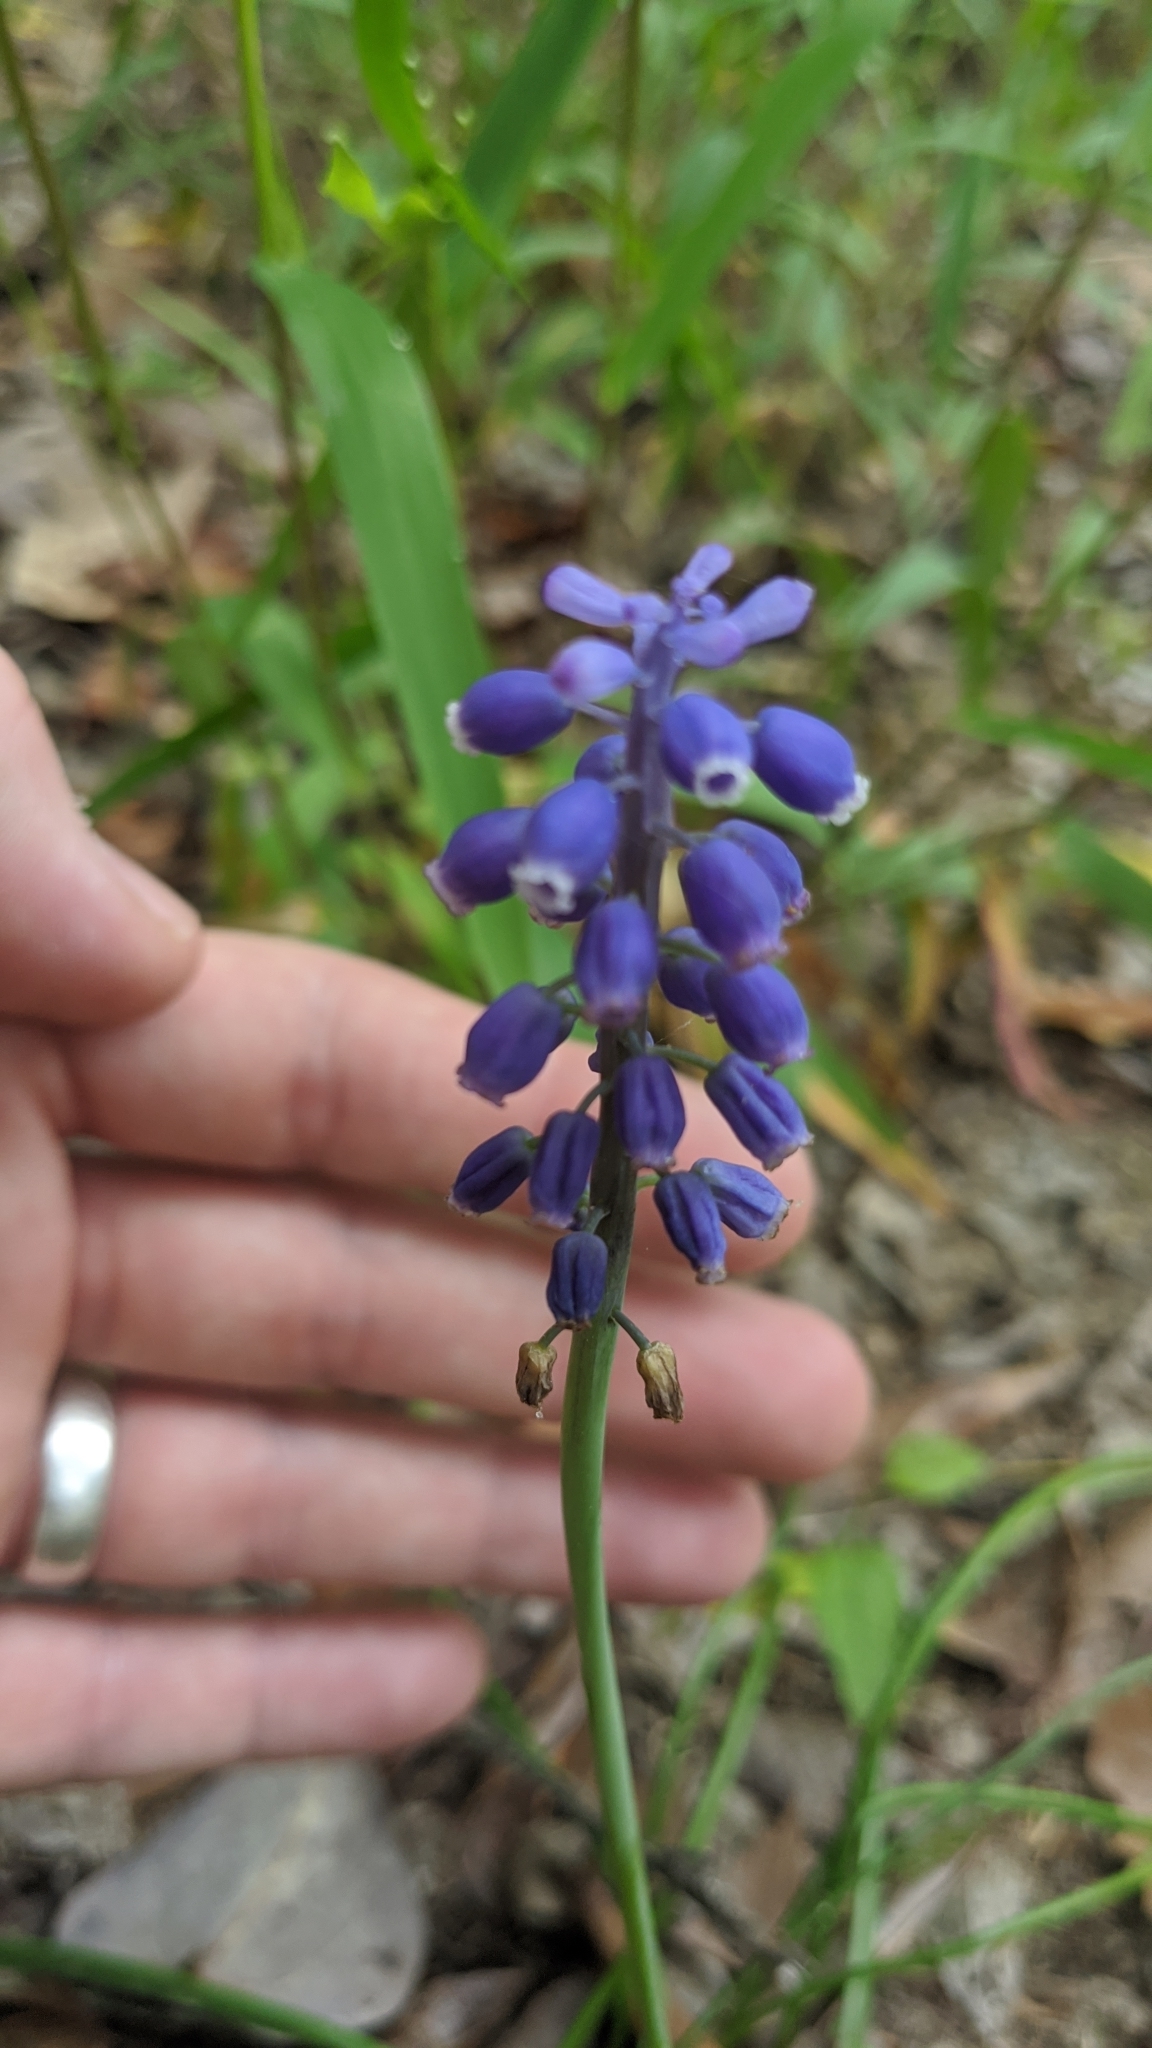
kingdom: Plantae
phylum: Tracheophyta
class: Liliopsida
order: Asparagales
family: Asparagaceae
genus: Muscari
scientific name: Muscari neglectum
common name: Grape-hyacinth
